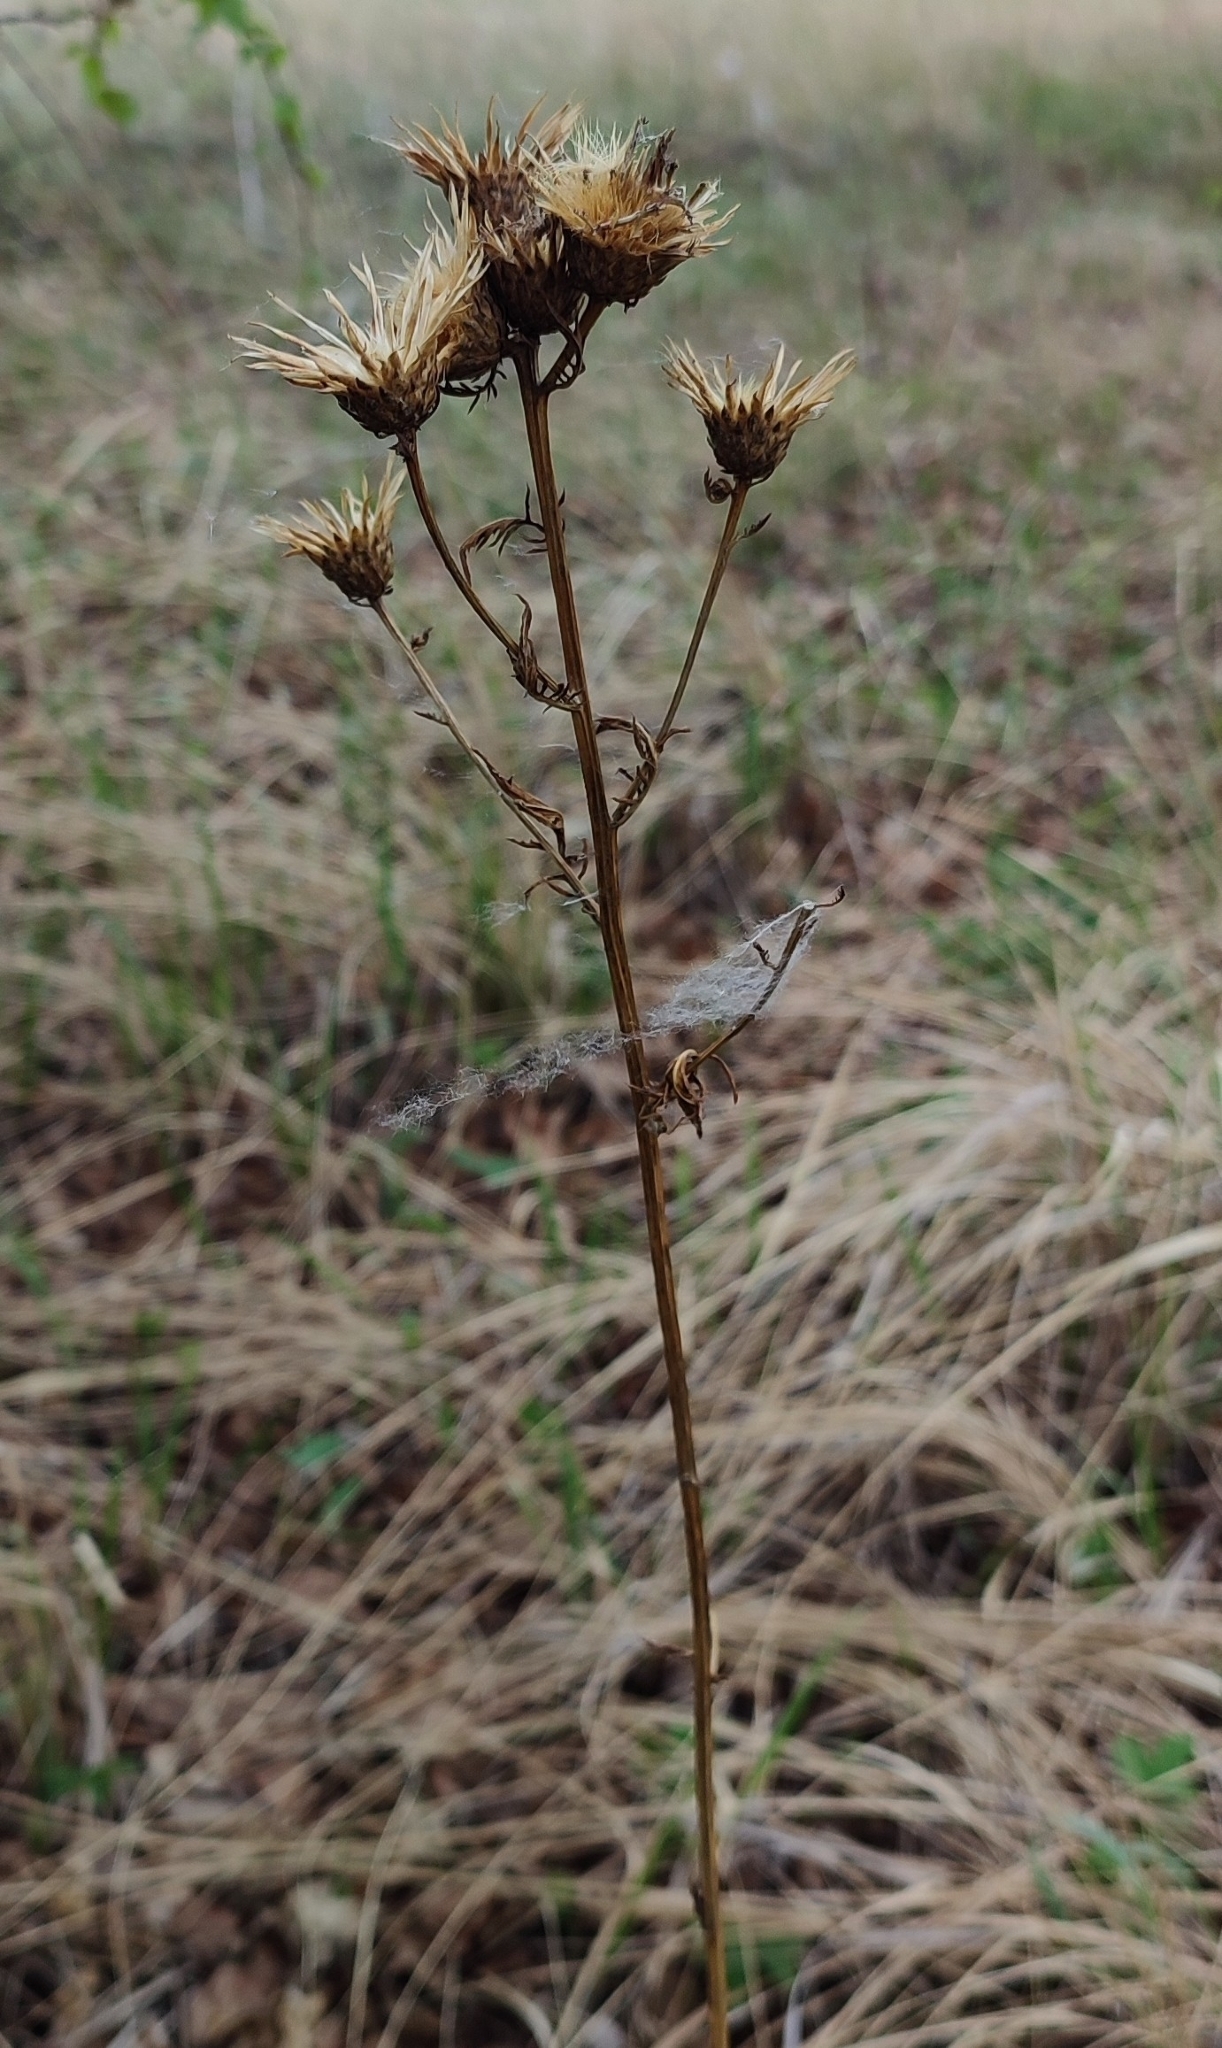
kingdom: Plantae
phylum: Tracheophyta
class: Magnoliopsida
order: Asterales
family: Asteraceae
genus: Serratula
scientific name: Serratula coronata
